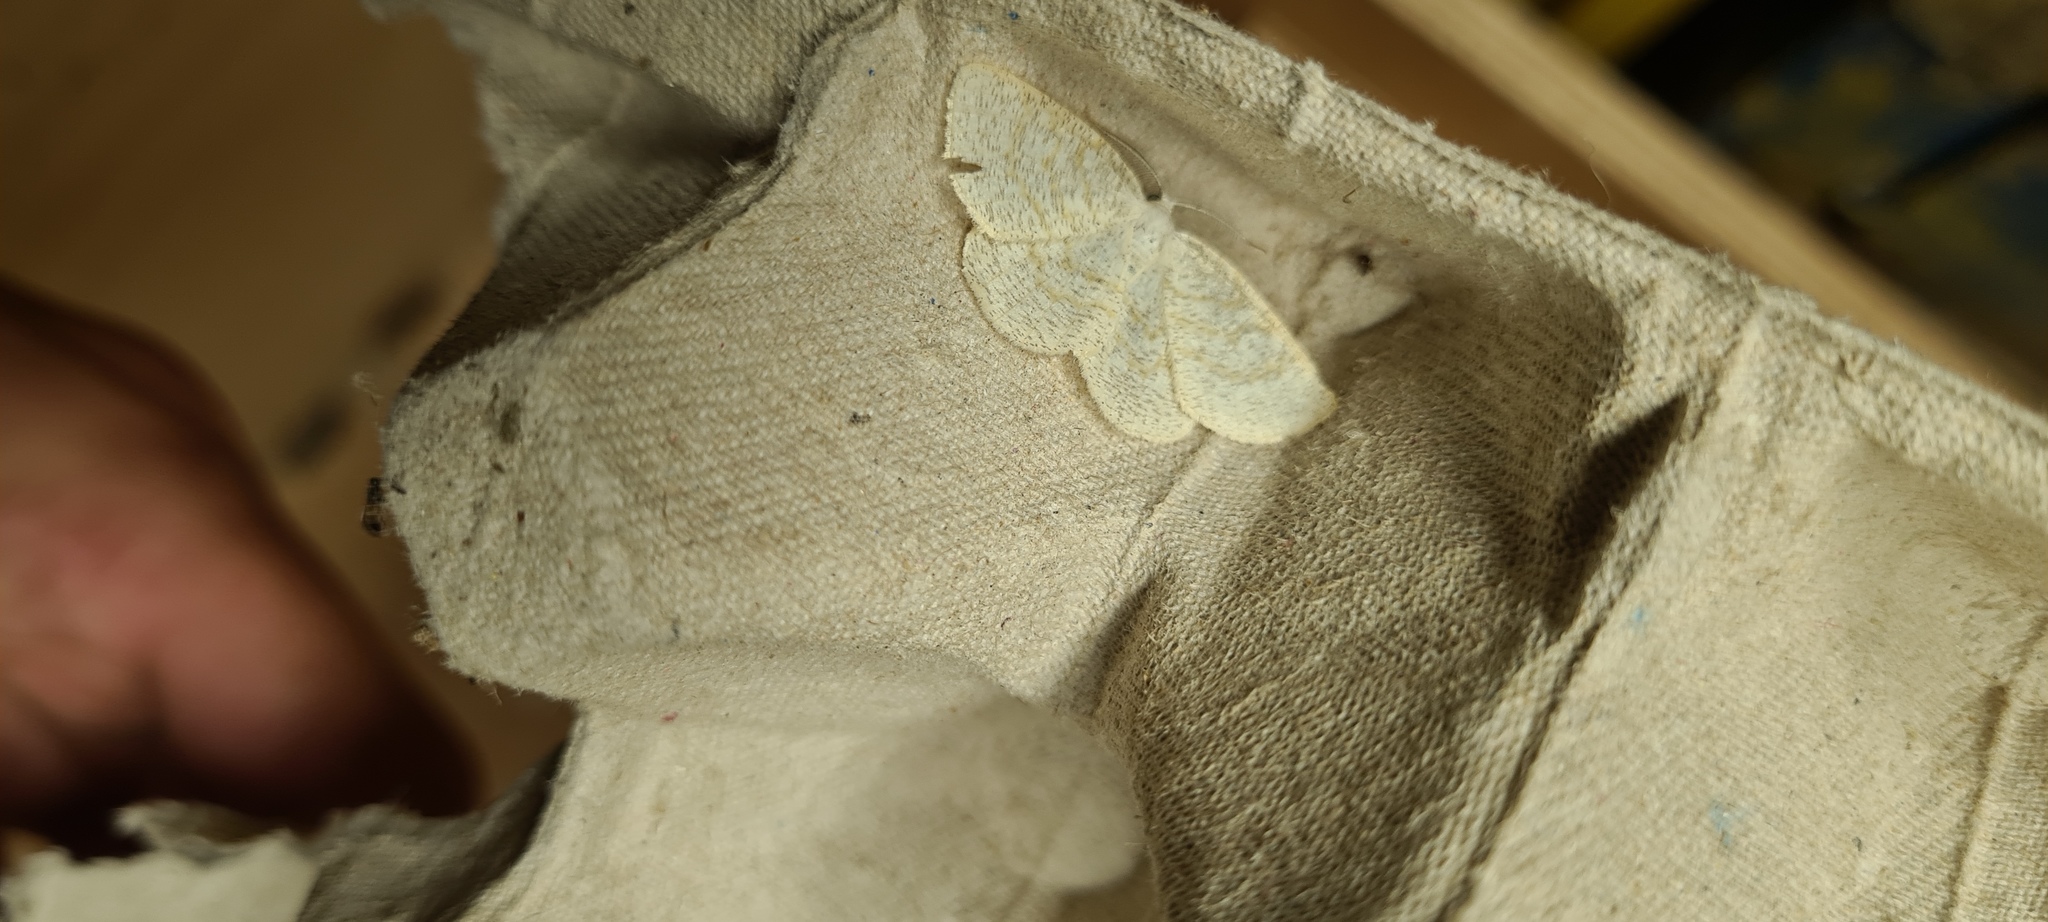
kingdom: Animalia
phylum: Arthropoda
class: Insecta
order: Lepidoptera
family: Geometridae
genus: Cabera
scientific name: Cabera exanthemata
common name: Common wave
